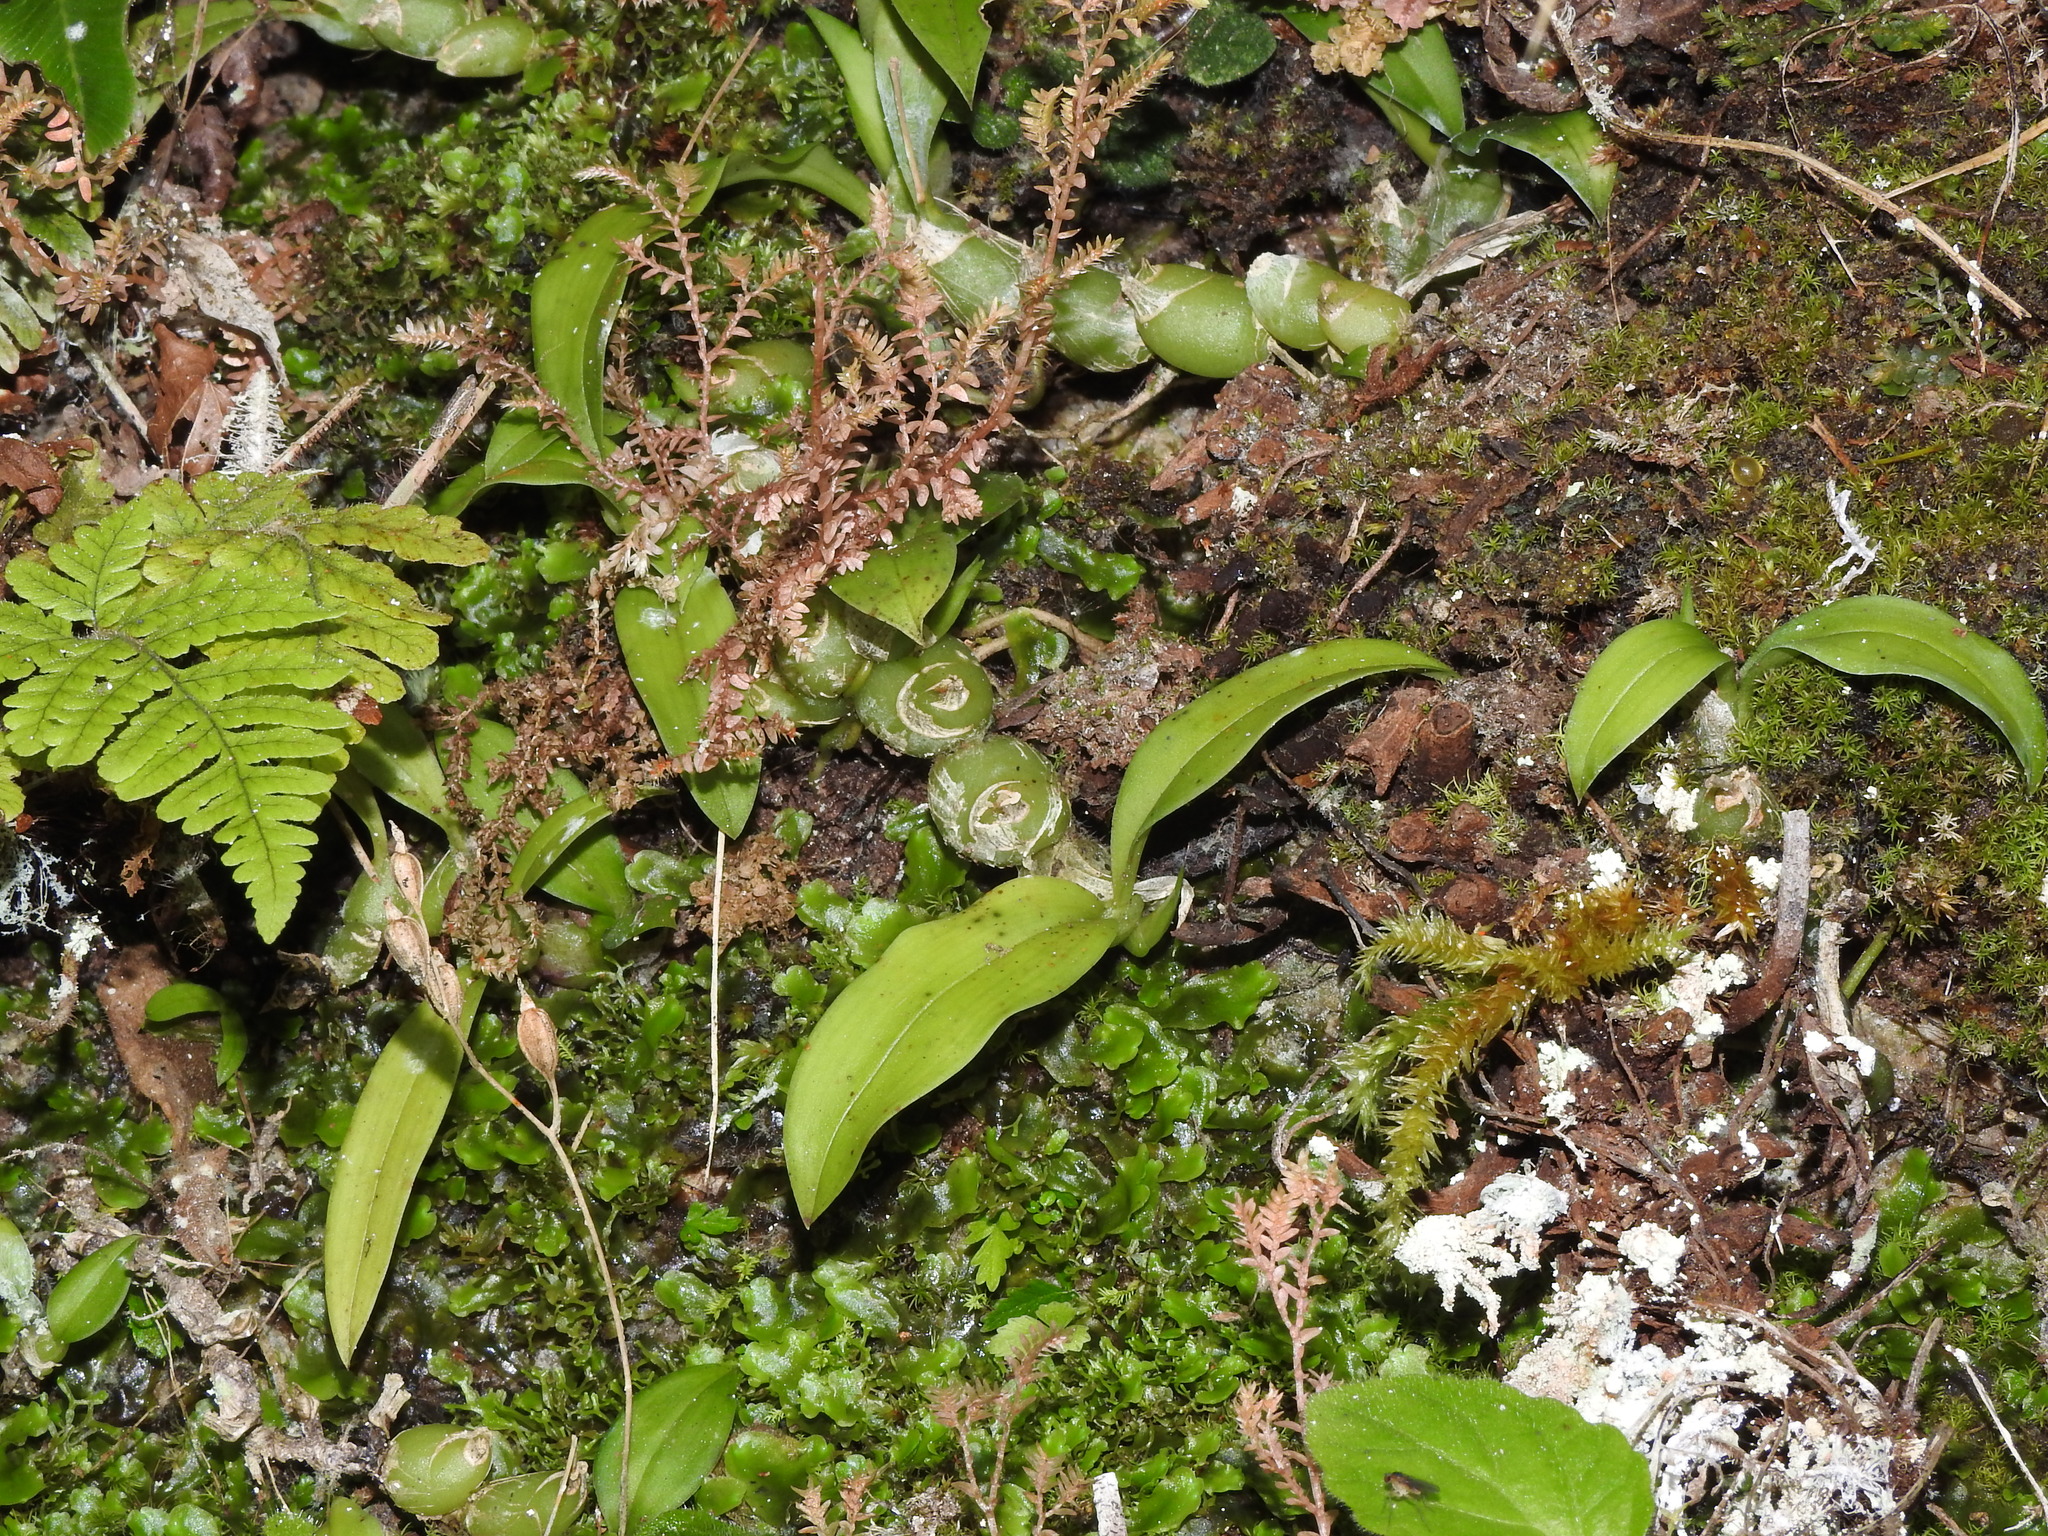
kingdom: Plantae
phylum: Tracheophyta
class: Liliopsida
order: Asparagales
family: Orchidaceae
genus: Liparis
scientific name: Liparis nakaharae
